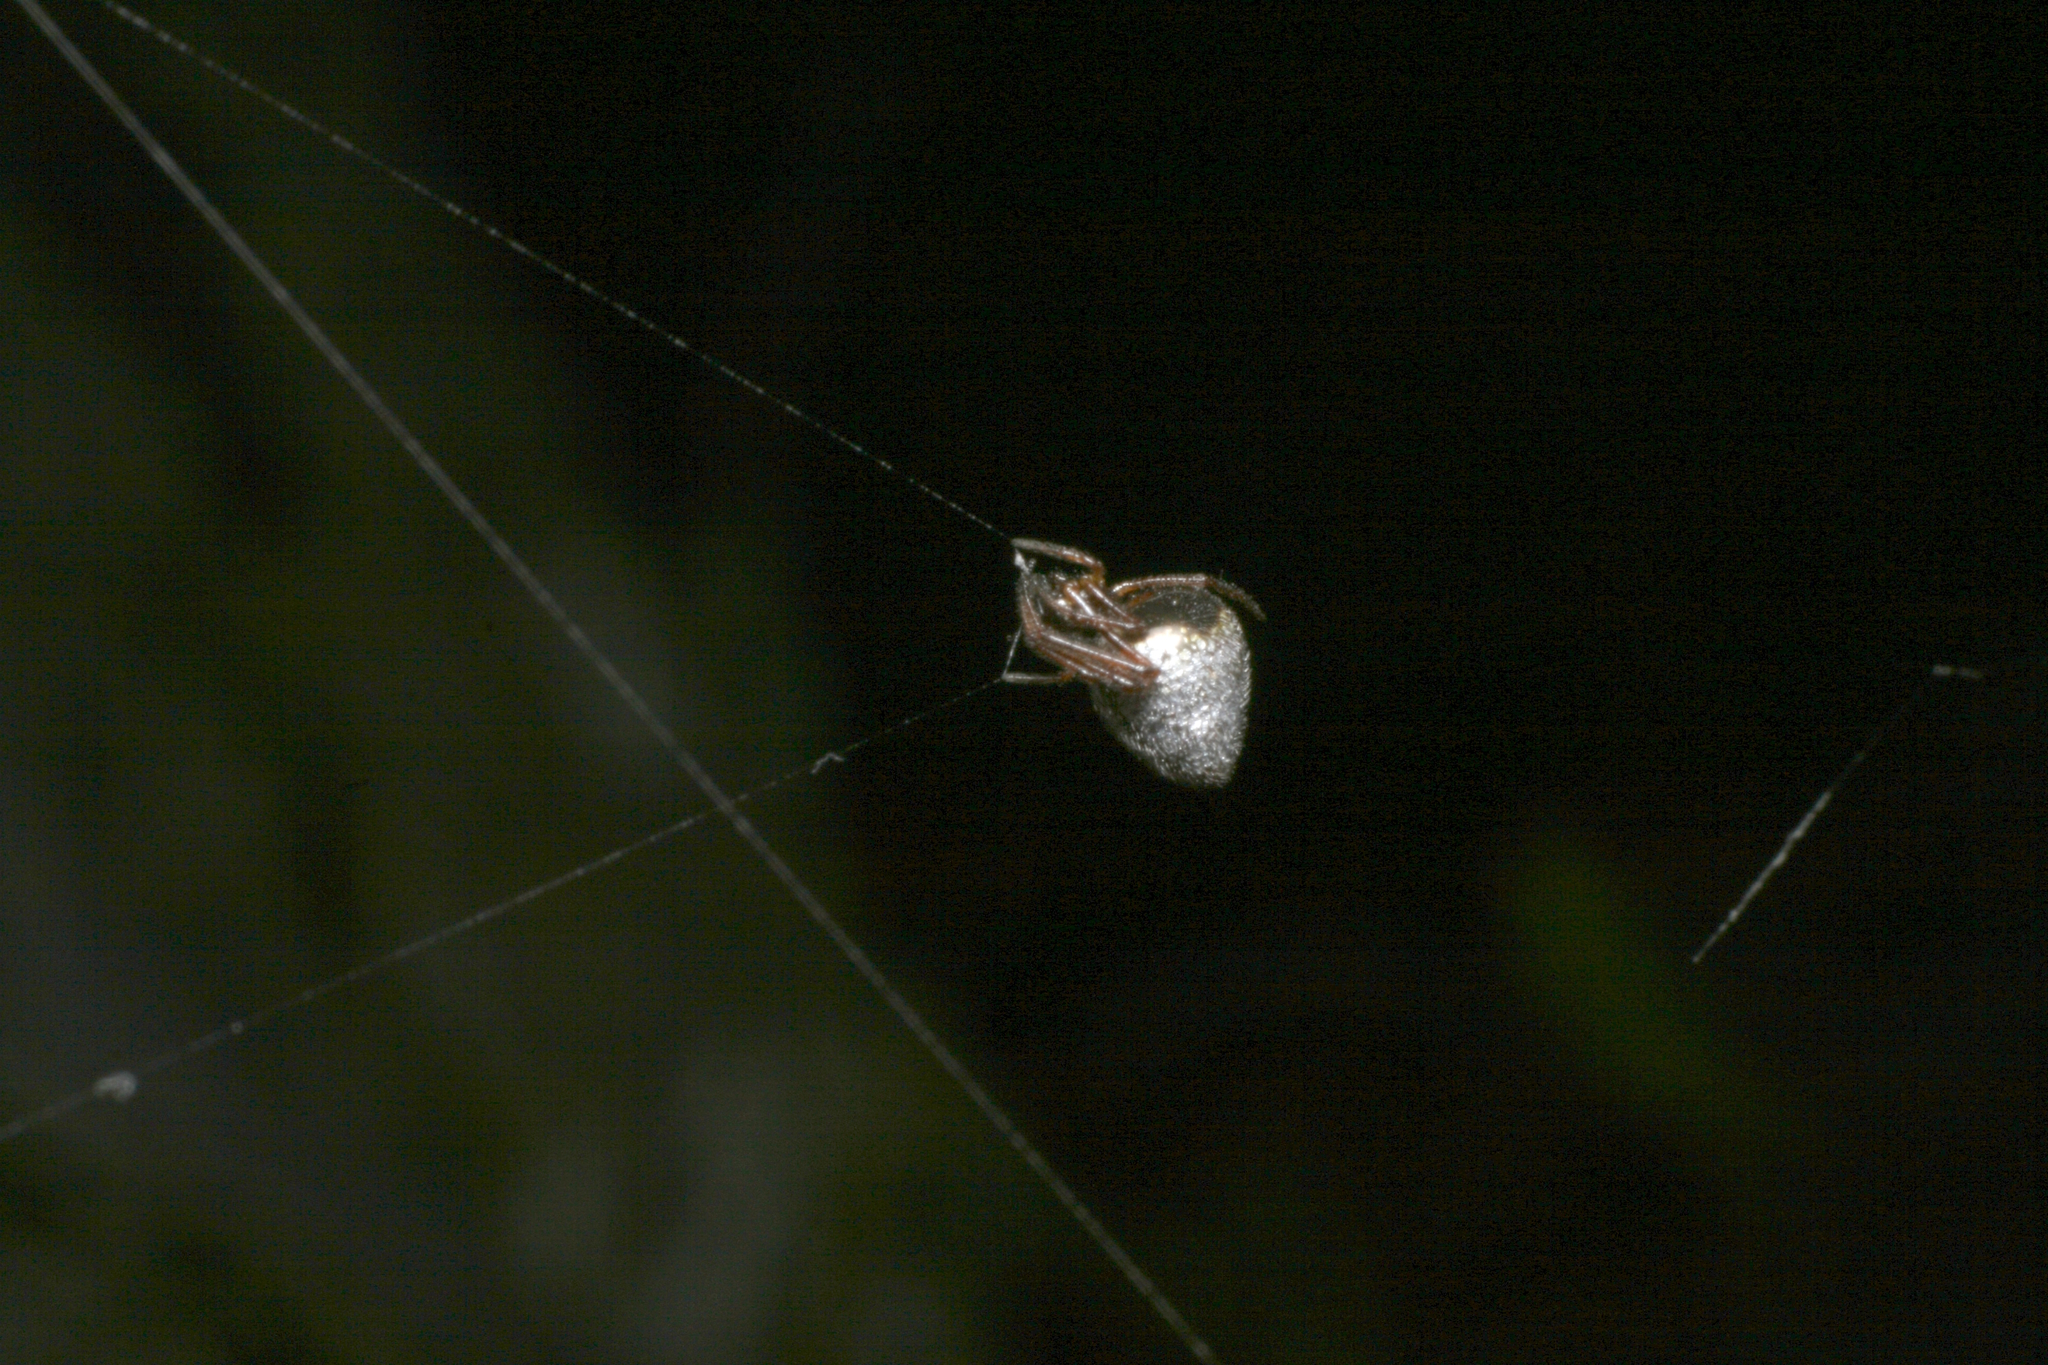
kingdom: Animalia
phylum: Arthropoda
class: Arachnida
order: Araneae
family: Theridiidae
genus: Argyrodes
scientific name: Argyrodes antipodianus
